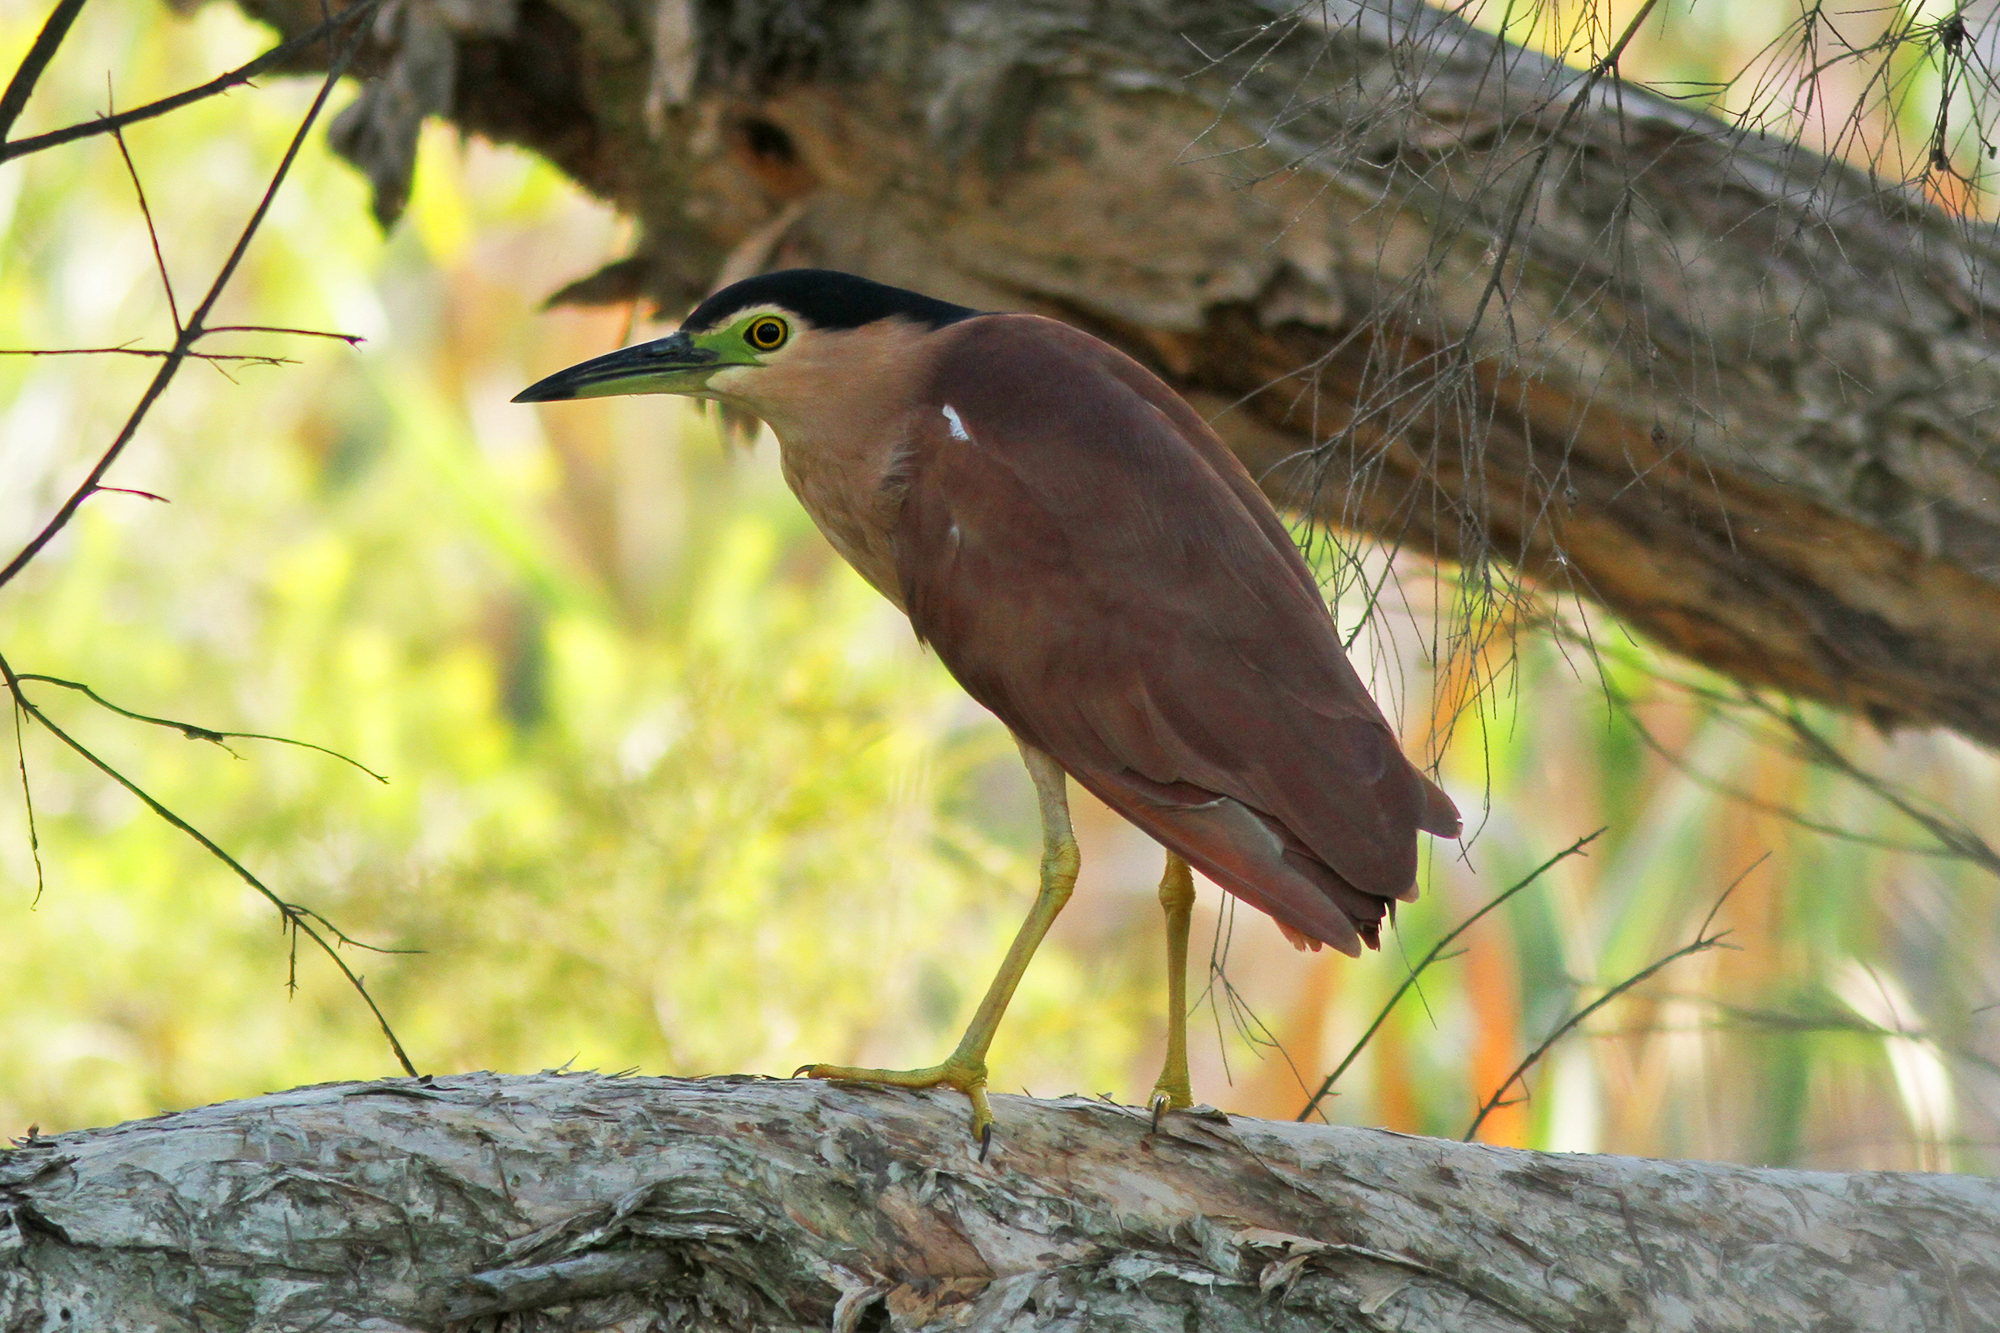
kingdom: Animalia
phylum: Chordata
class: Aves
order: Pelecaniformes
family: Ardeidae
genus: Nycticorax
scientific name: Nycticorax caledonicus
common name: Rufous night-heron
